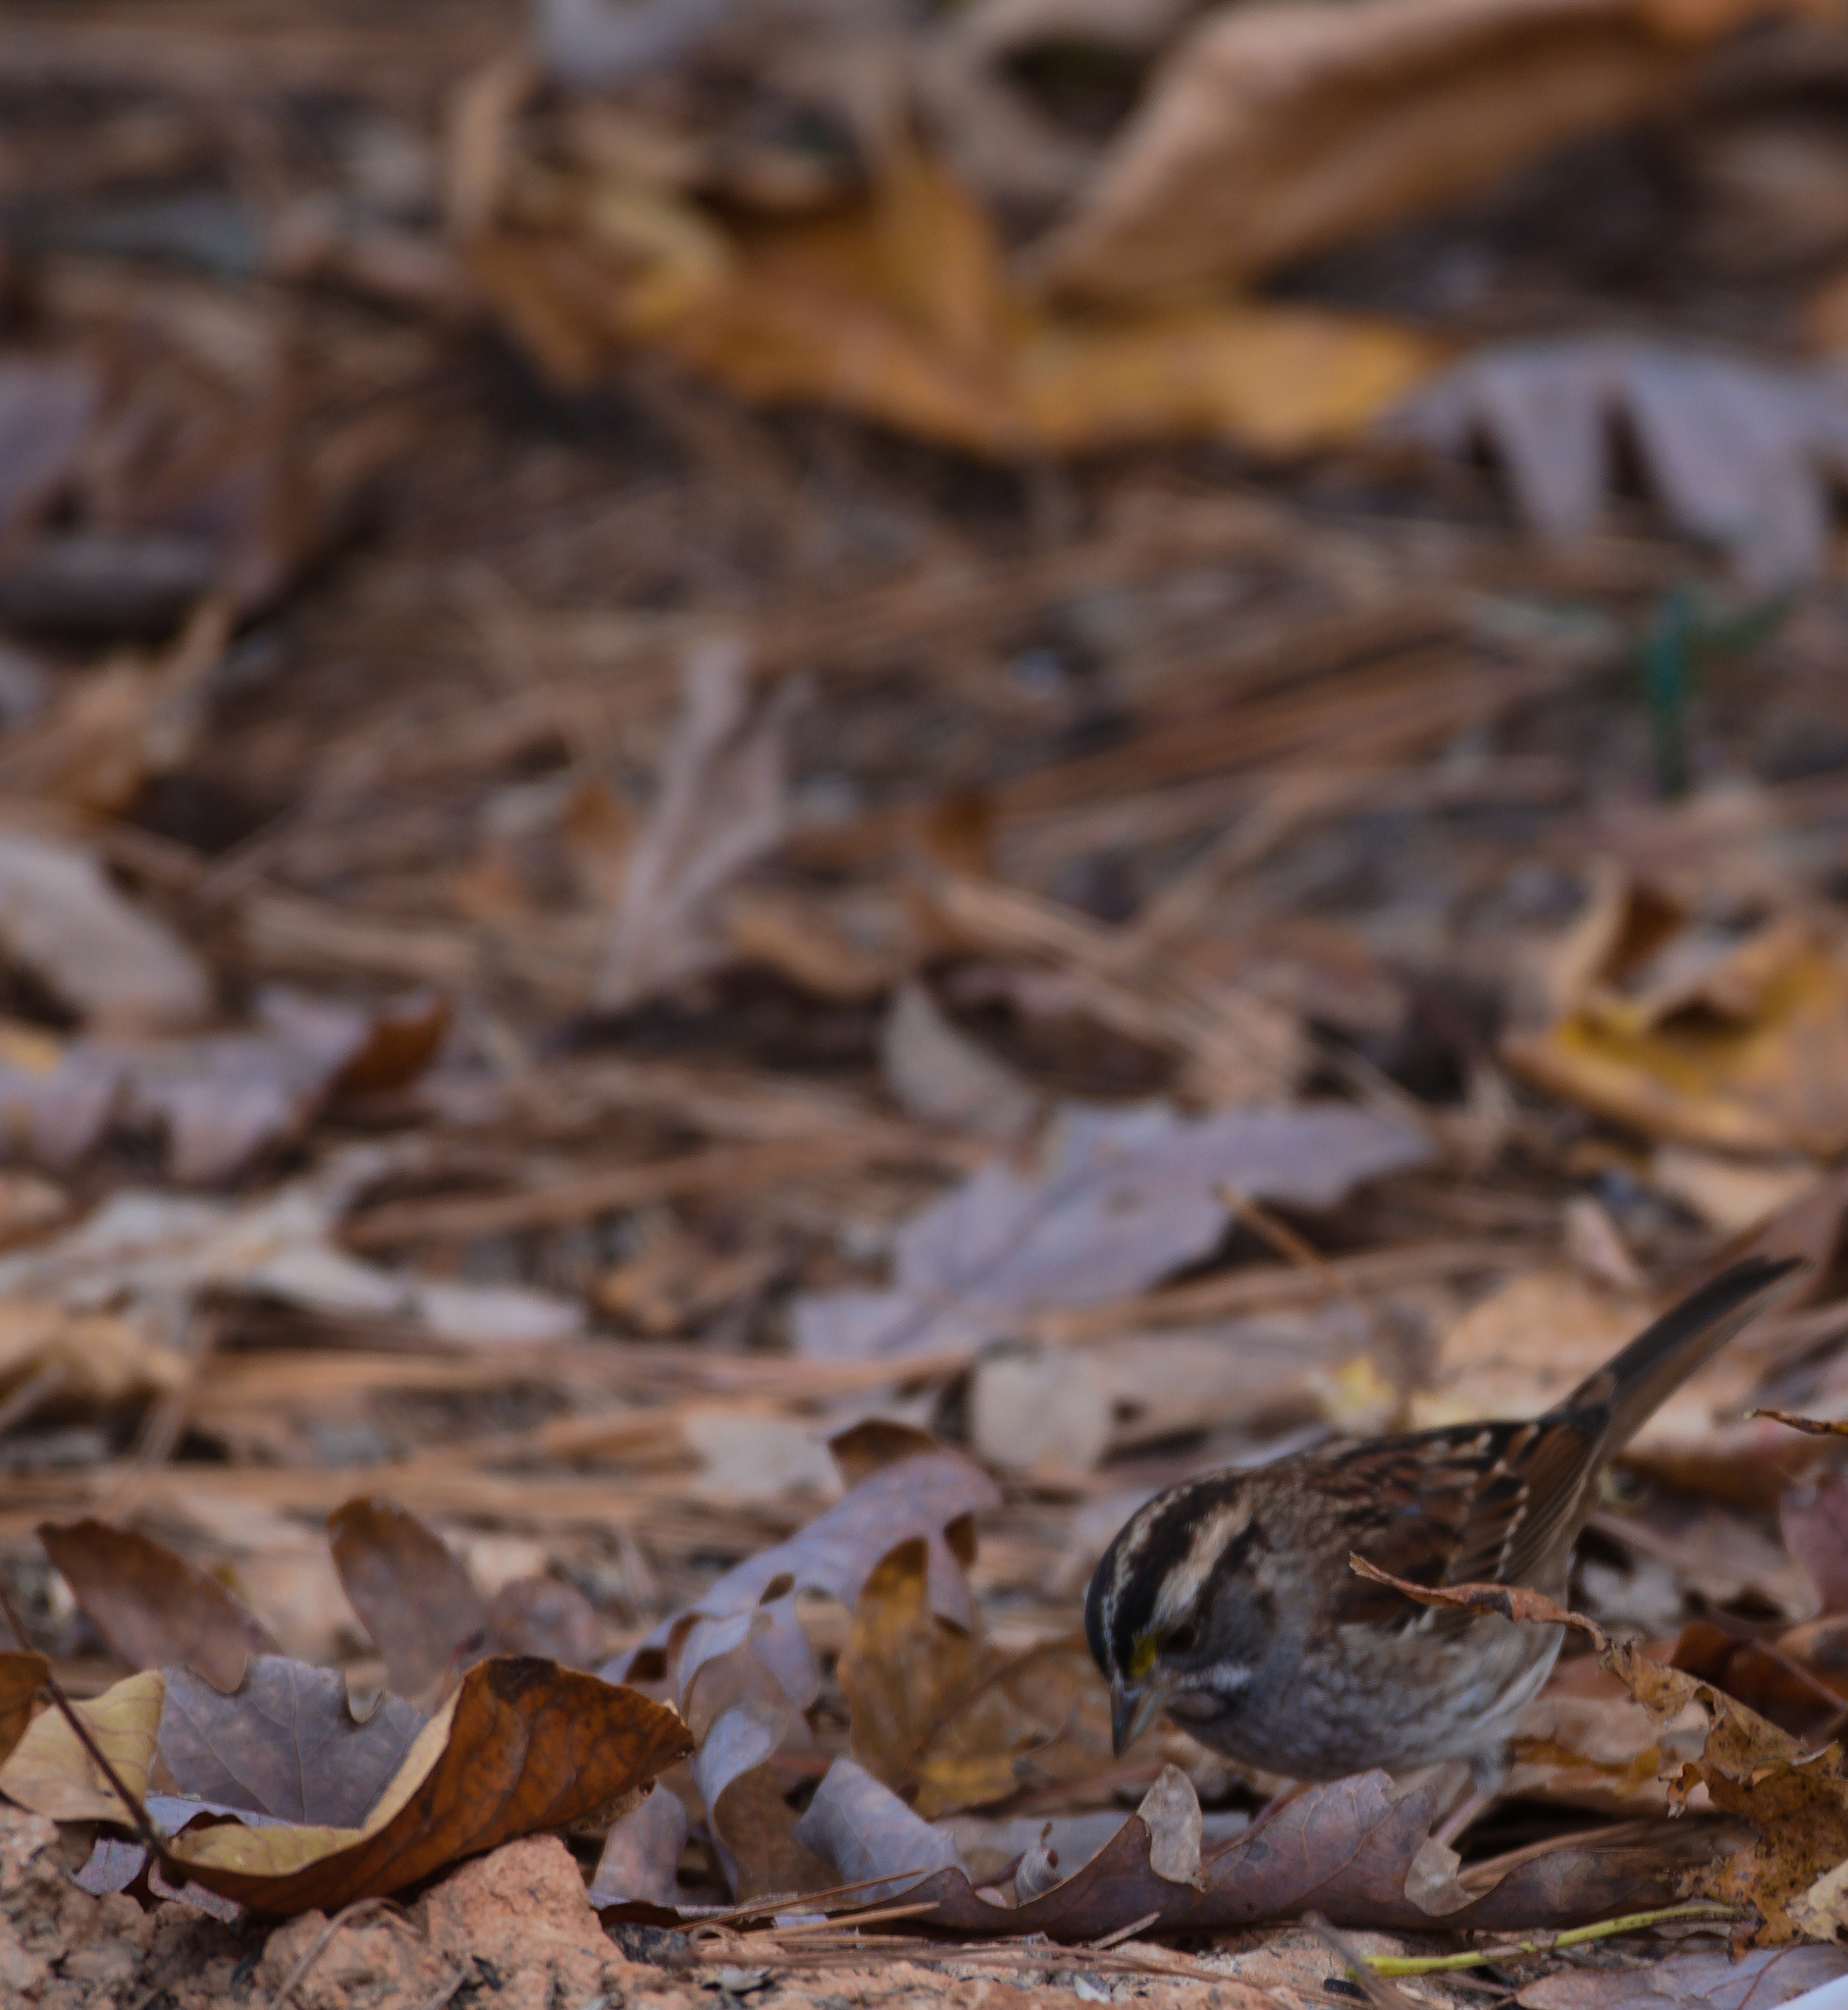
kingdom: Animalia
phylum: Chordata
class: Aves
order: Passeriformes
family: Passerellidae
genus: Zonotrichia
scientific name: Zonotrichia albicollis
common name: White-throated sparrow
